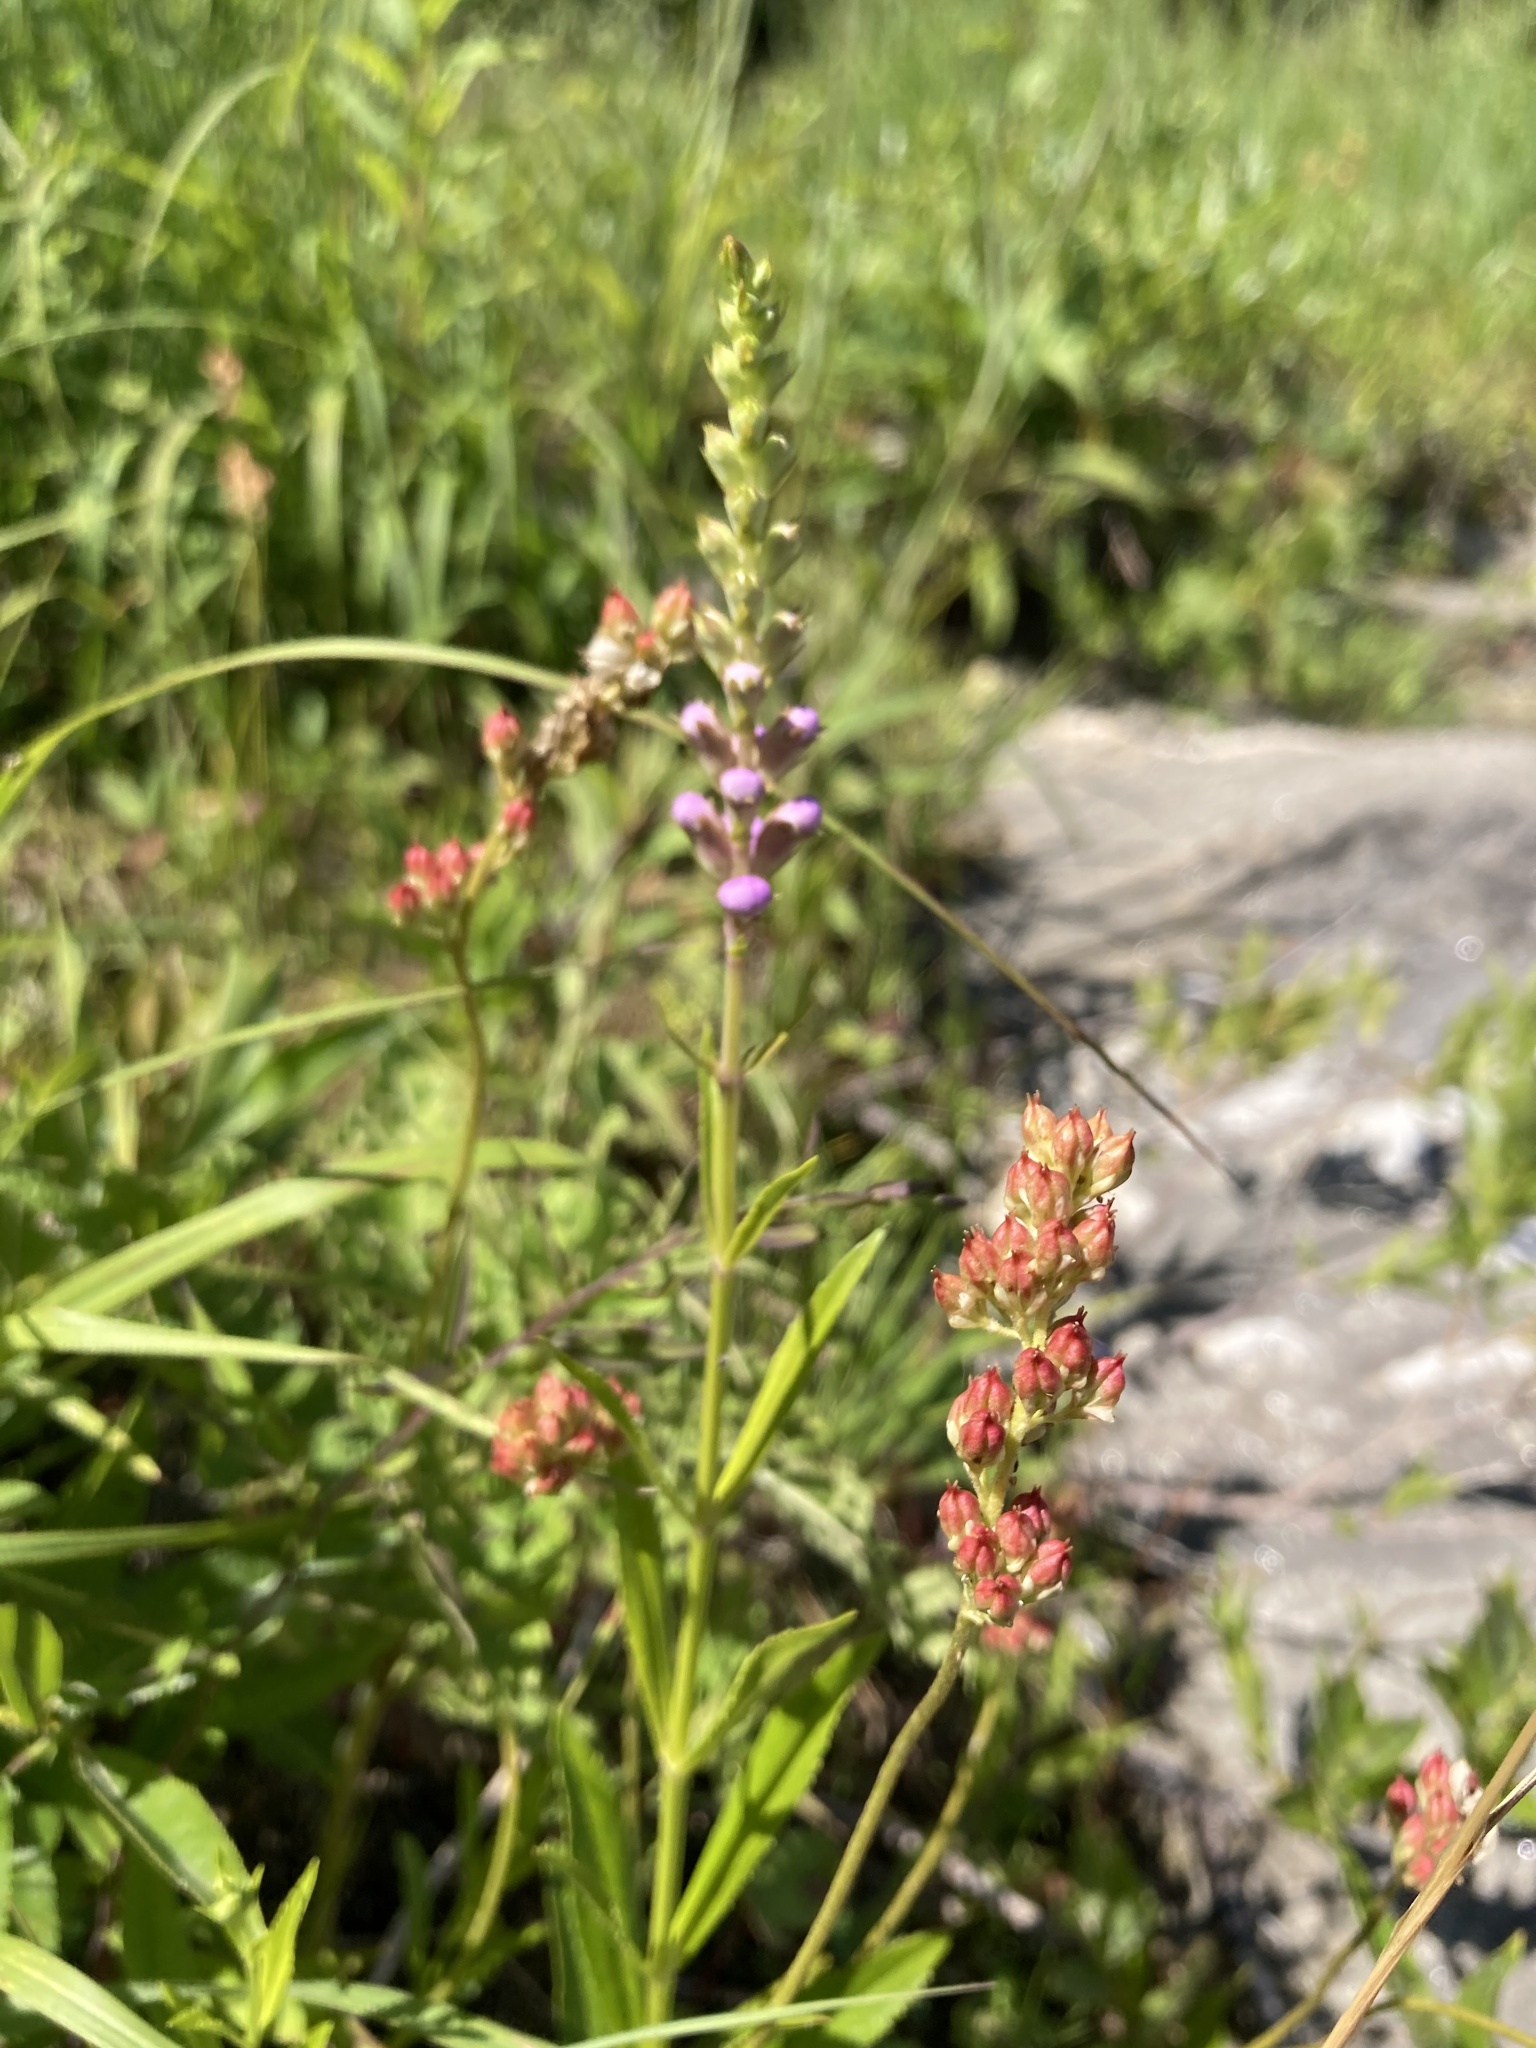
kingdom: Plantae
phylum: Tracheophyta
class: Liliopsida
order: Alismatales
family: Tofieldiaceae
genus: Triantha
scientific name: Triantha glutinosa
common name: Glutinous tofieldia
